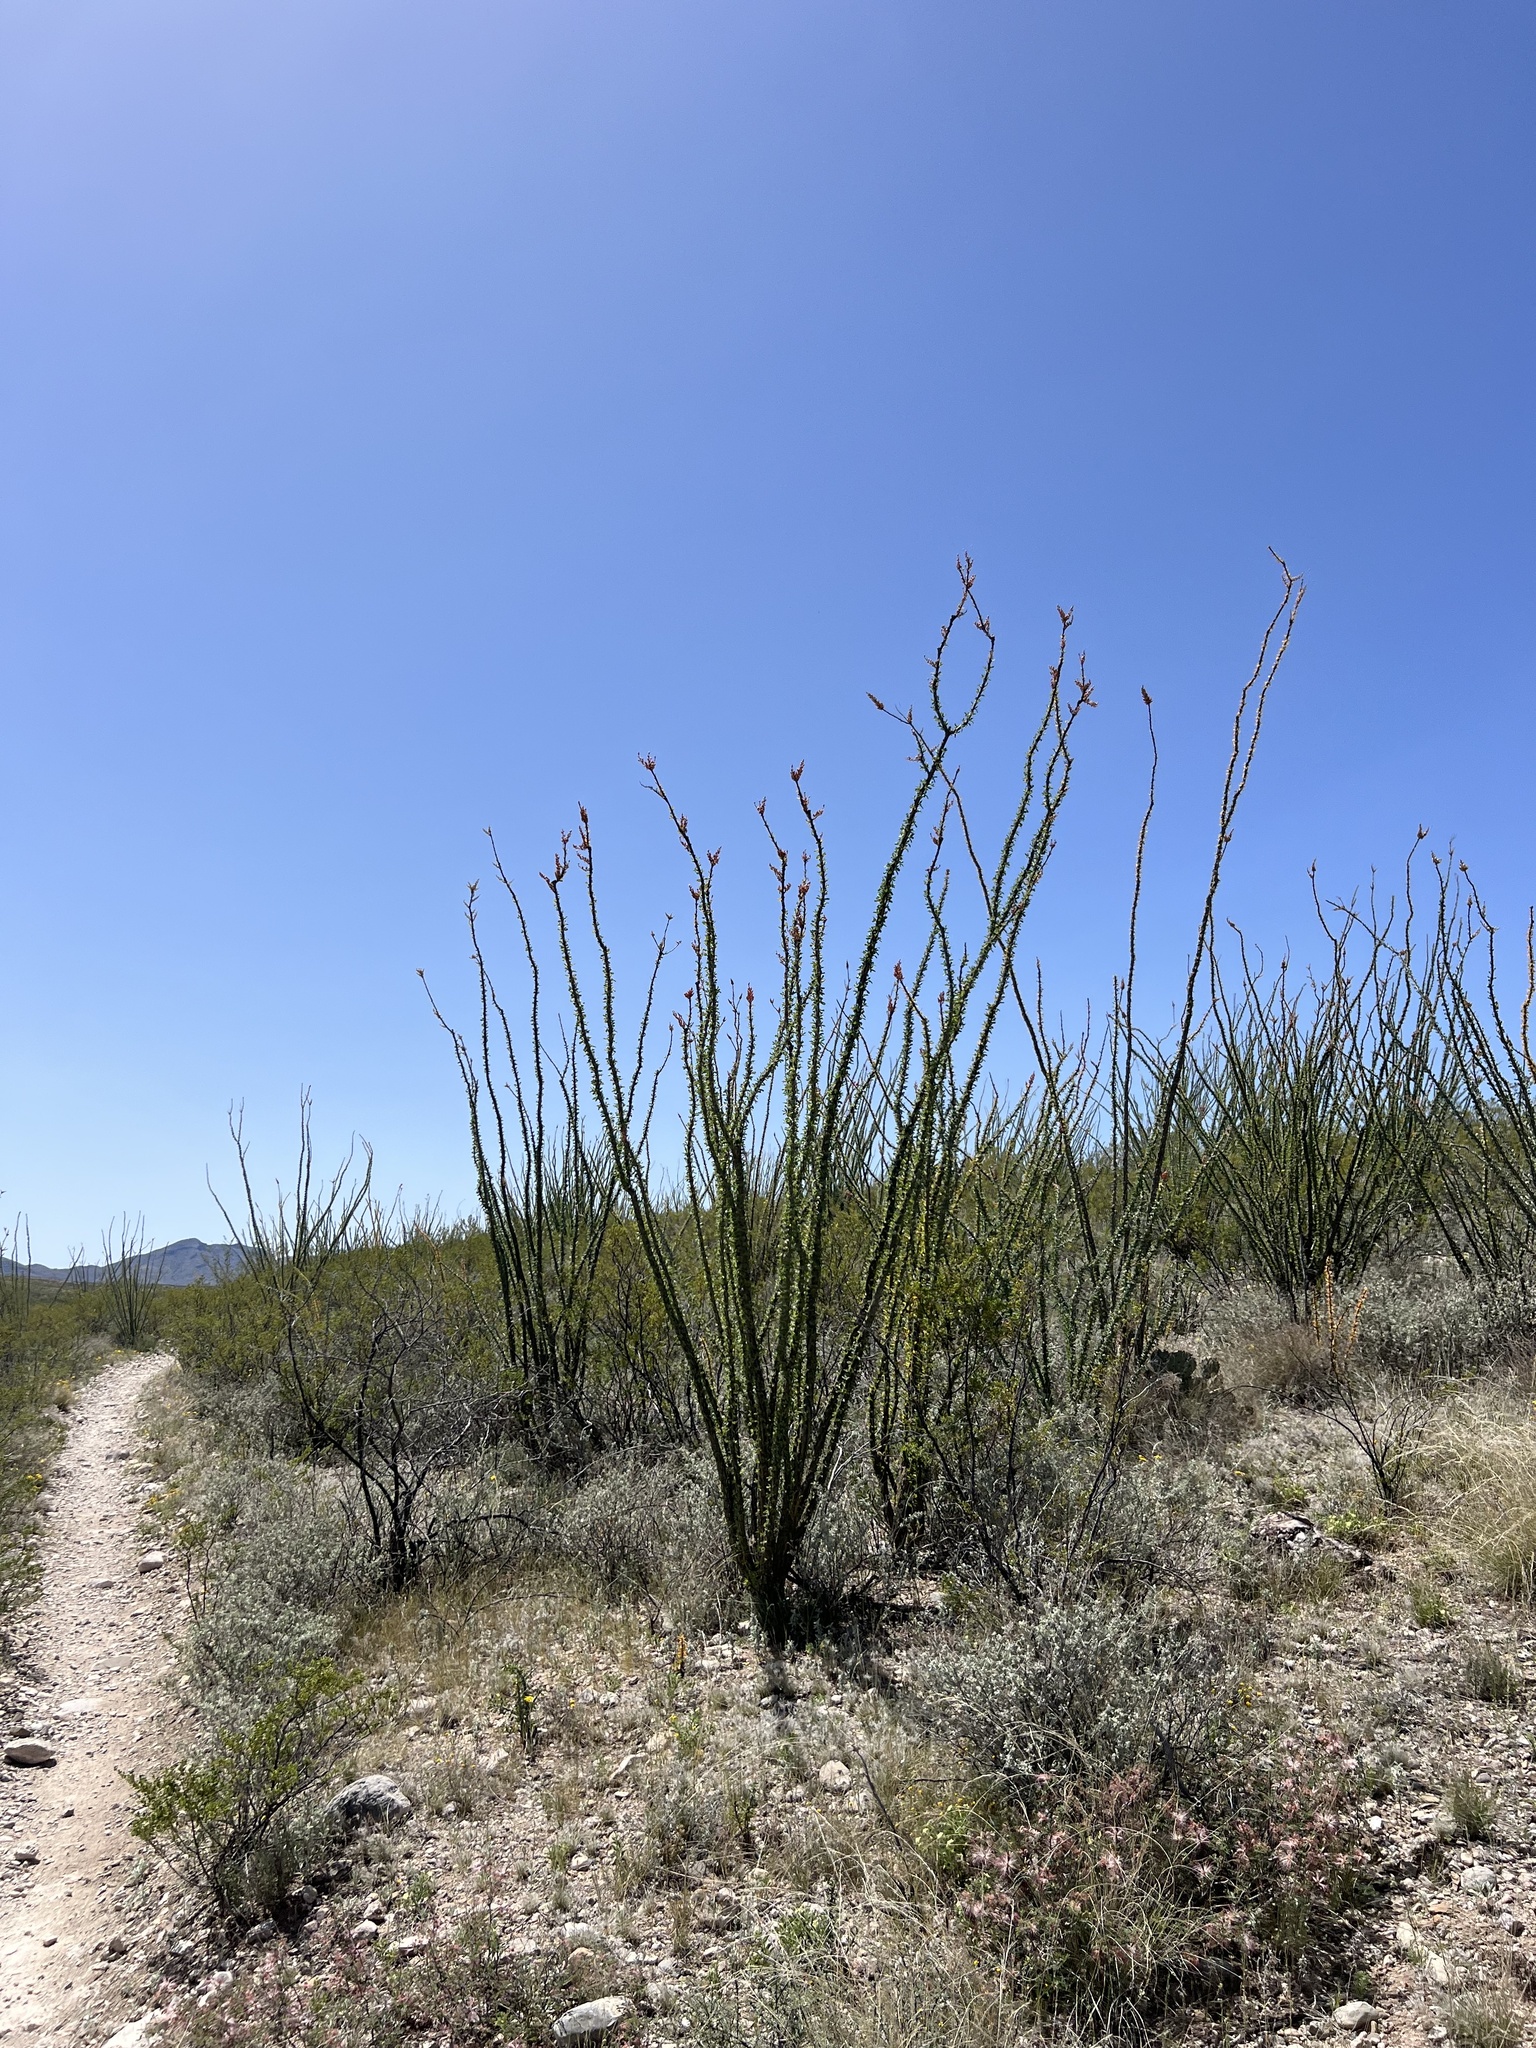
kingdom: Plantae
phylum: Tracheophyta
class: Magnoliopsida
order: Ericales
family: Fouquieriaceae
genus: Fouquieria
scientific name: Fouquieria splendens
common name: Vine-cactus
